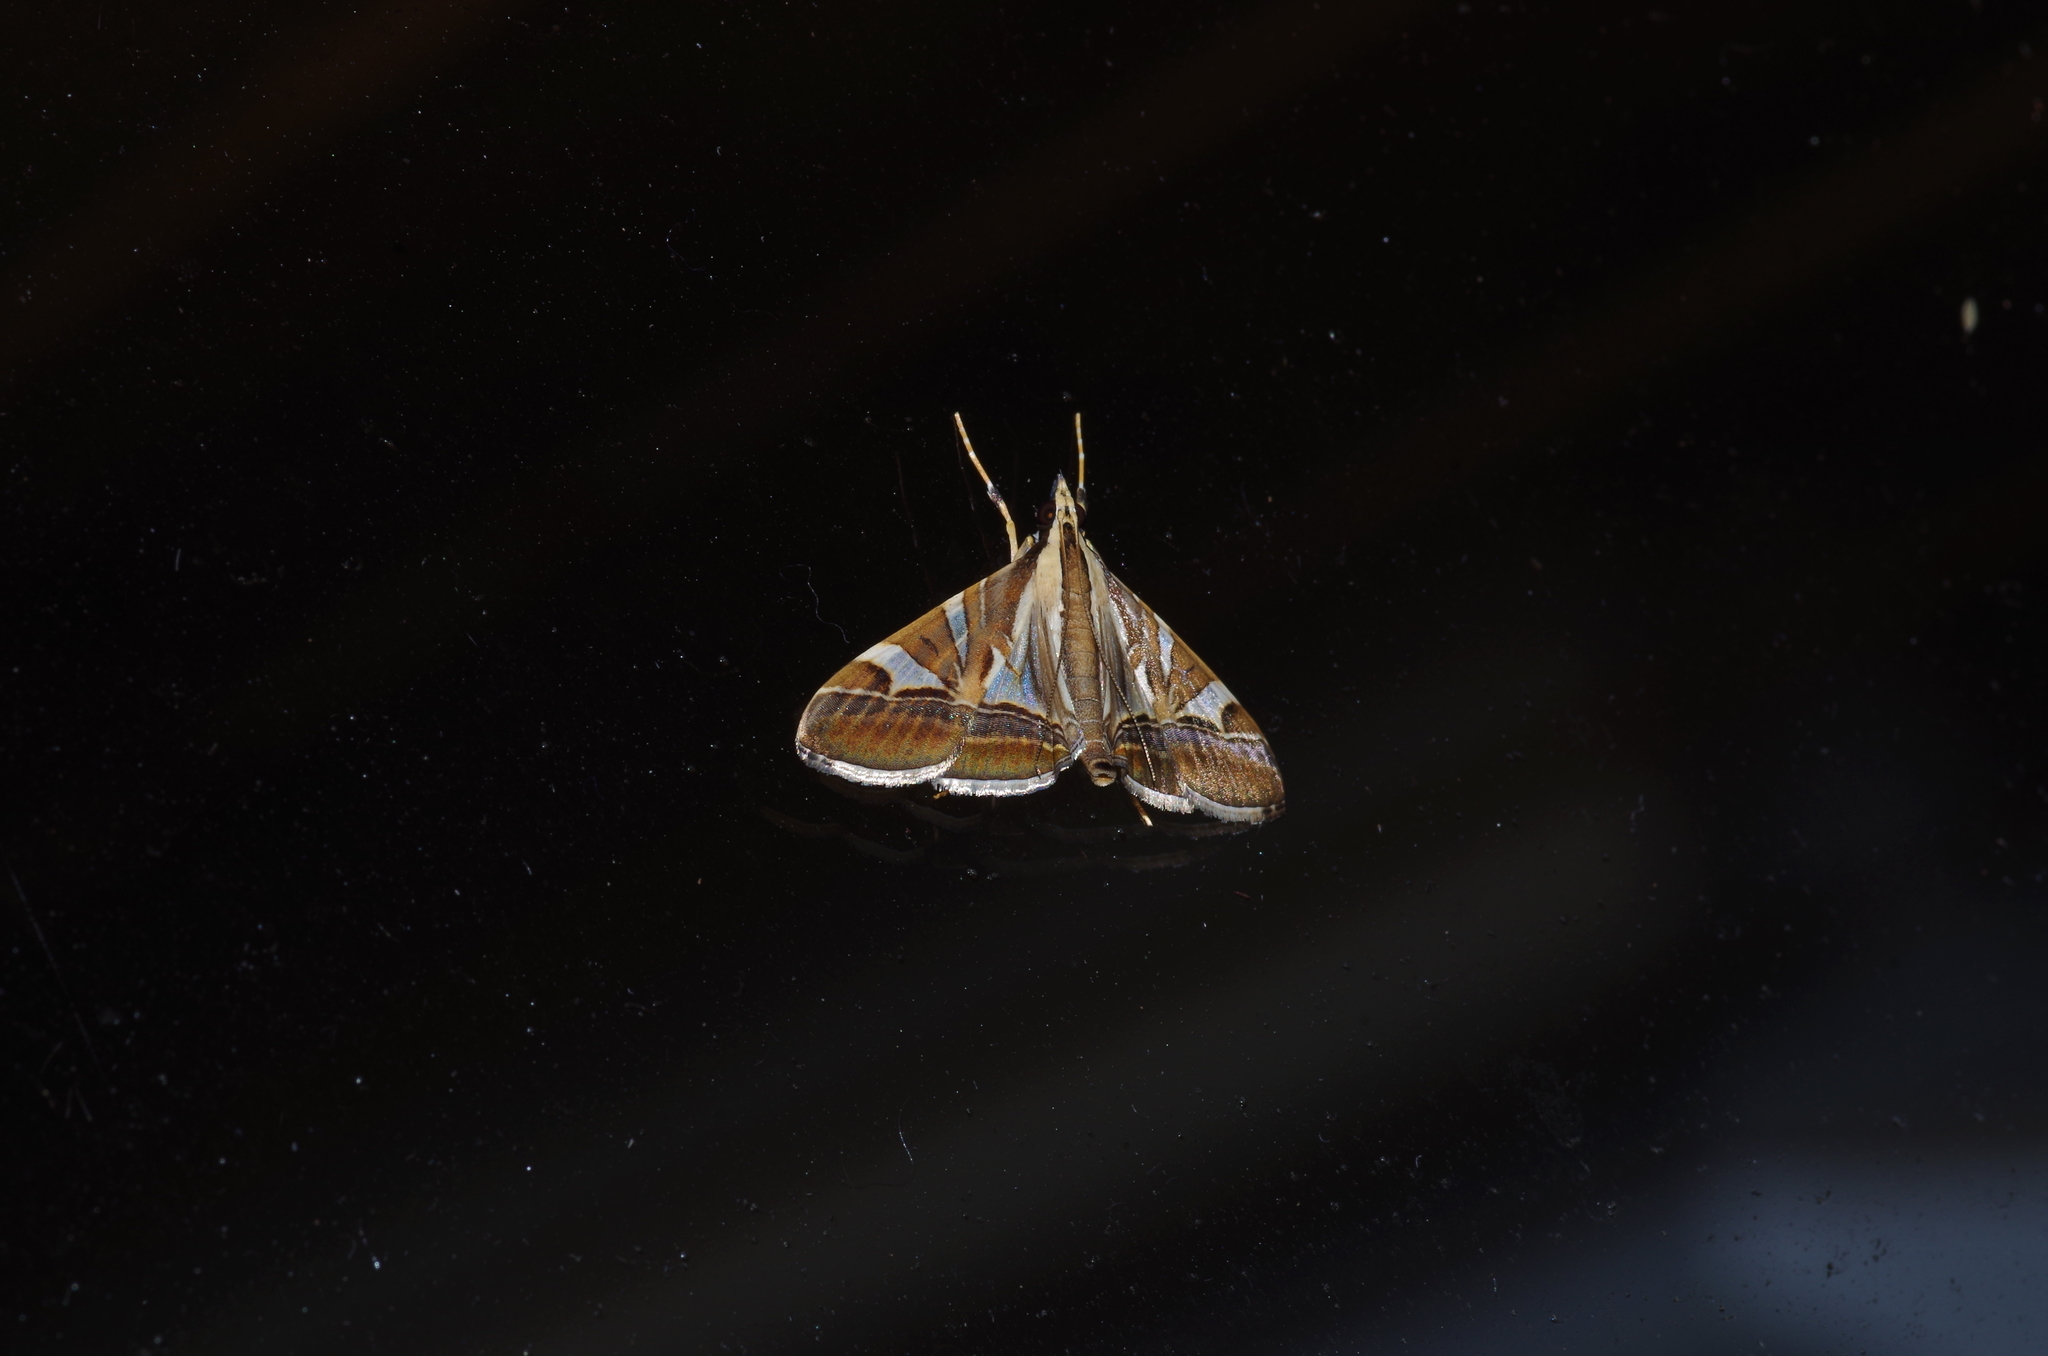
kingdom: Animalia
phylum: Arthropoda
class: Insecta
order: Lepidoptera
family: Crambidae
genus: Agrioglypta
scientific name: Agrioglypta itysalis
